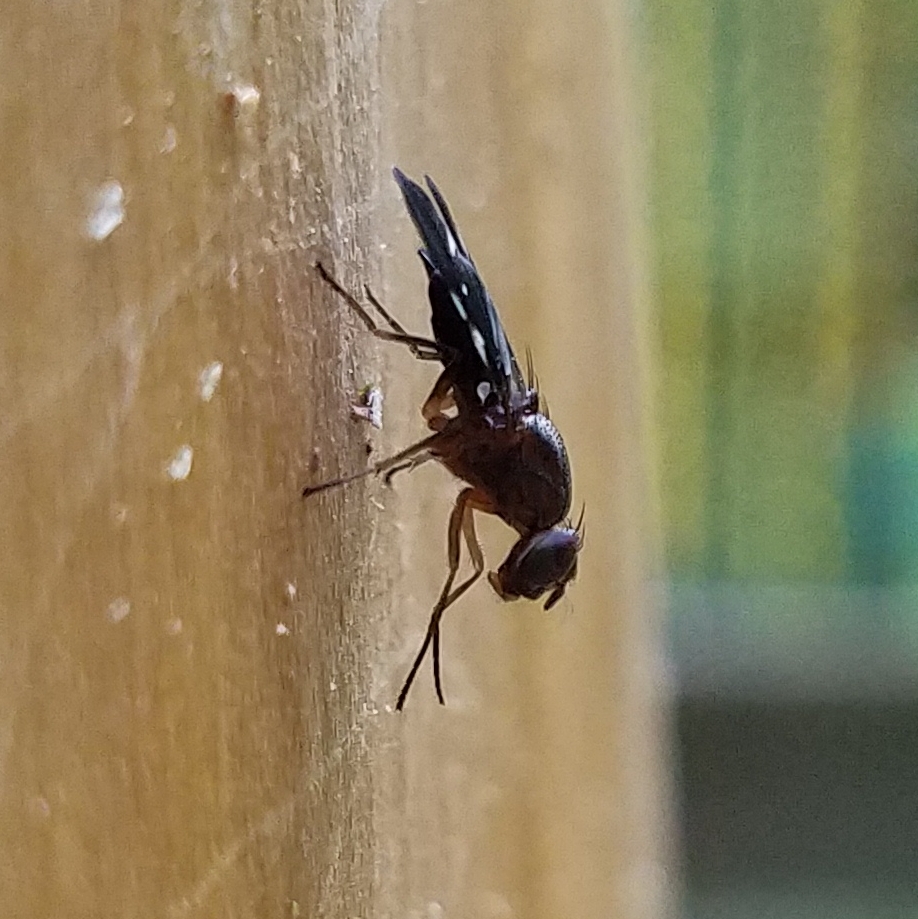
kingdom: Animalia
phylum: Arthropoda
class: Insecta
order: Diptera
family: Ulidiidae
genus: Delphinia
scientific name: Delphinia picta
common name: Common picture-winged fly
